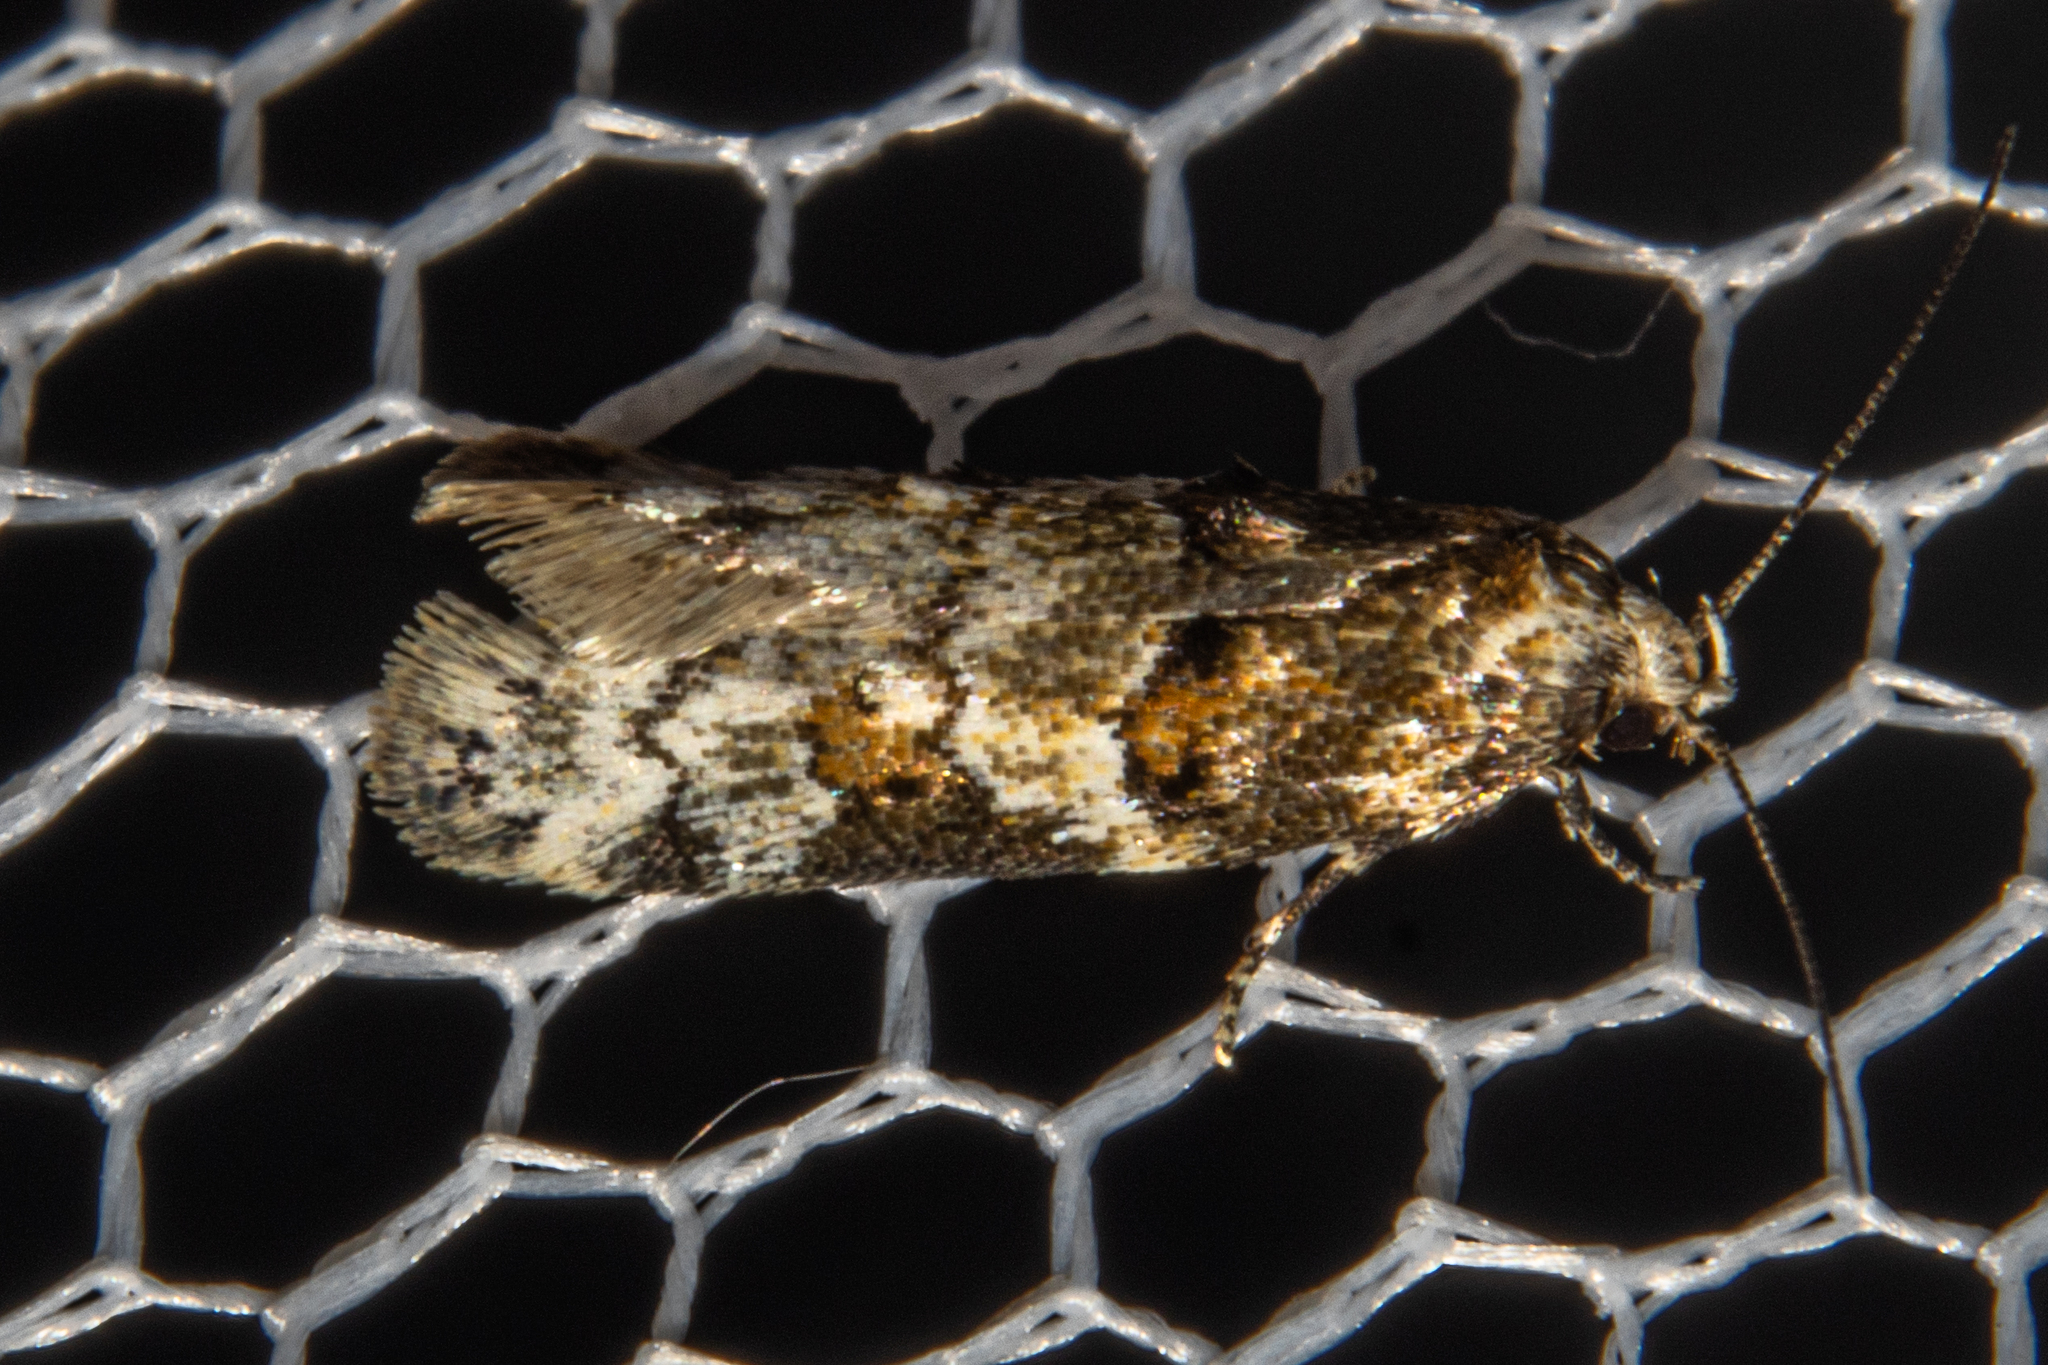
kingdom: Animalia
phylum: Arthropoda
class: Insecta
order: Lepidoptera
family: Oecophoridae
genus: Trachypepla
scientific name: Trachypepla contritella
